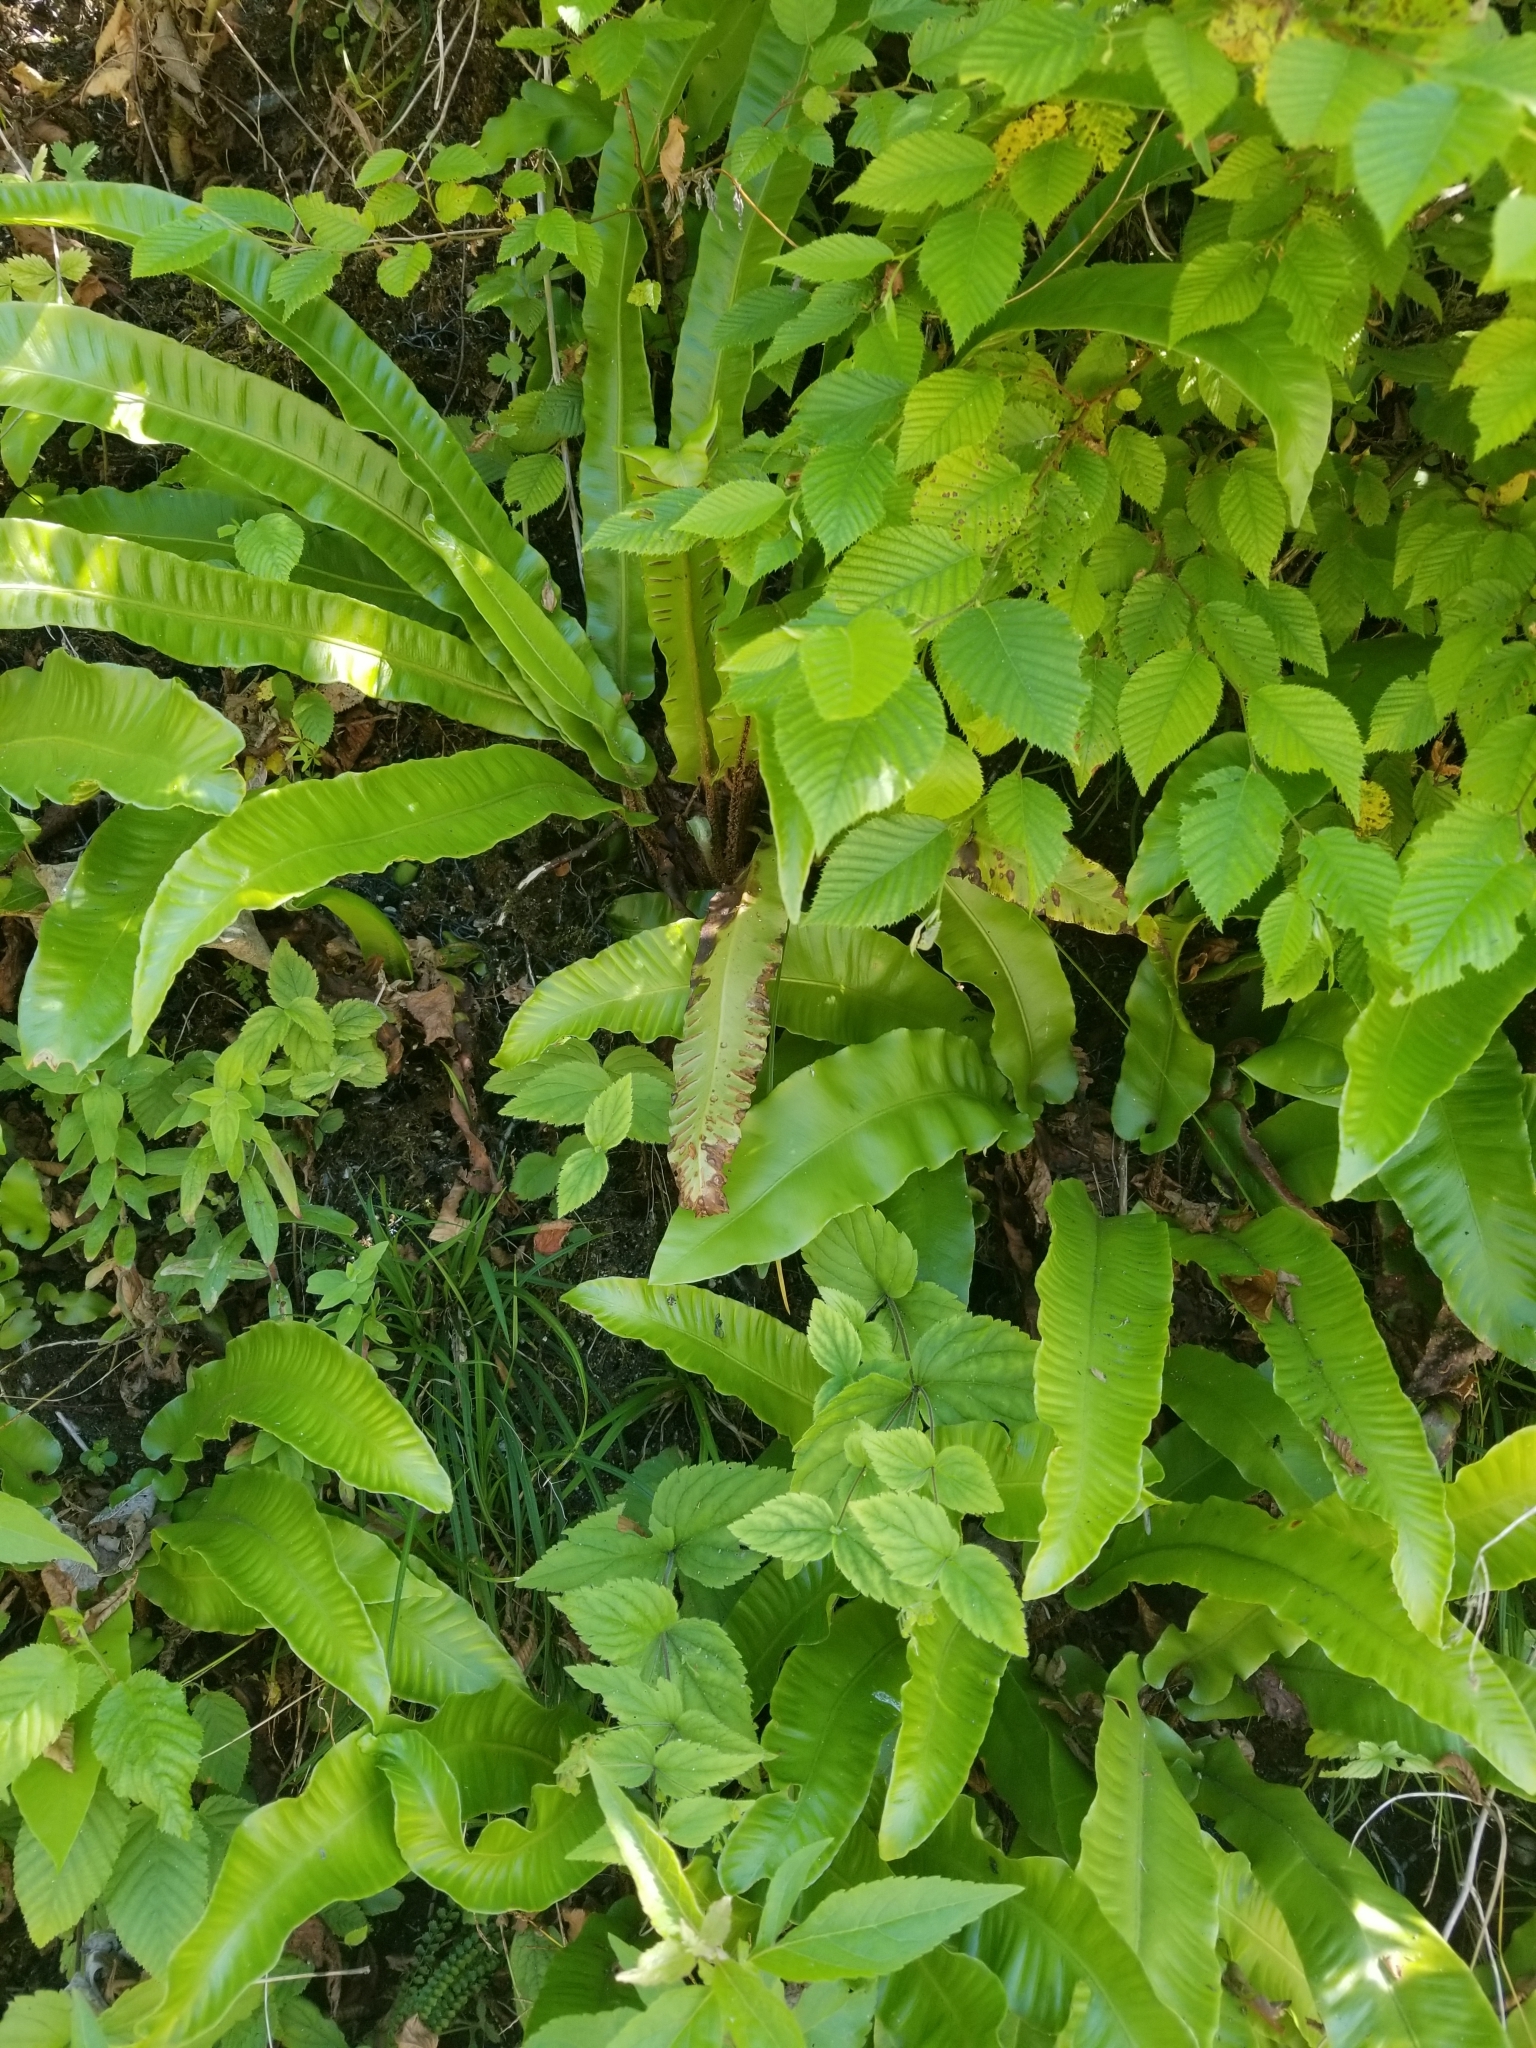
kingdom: Plantae
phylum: Tracheophyta
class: Polypodiopsida
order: Polypodiales
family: Aspleniaceae
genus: Asplenium
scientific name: Asplenium scolopendrium
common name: Hart's-tongue fern
